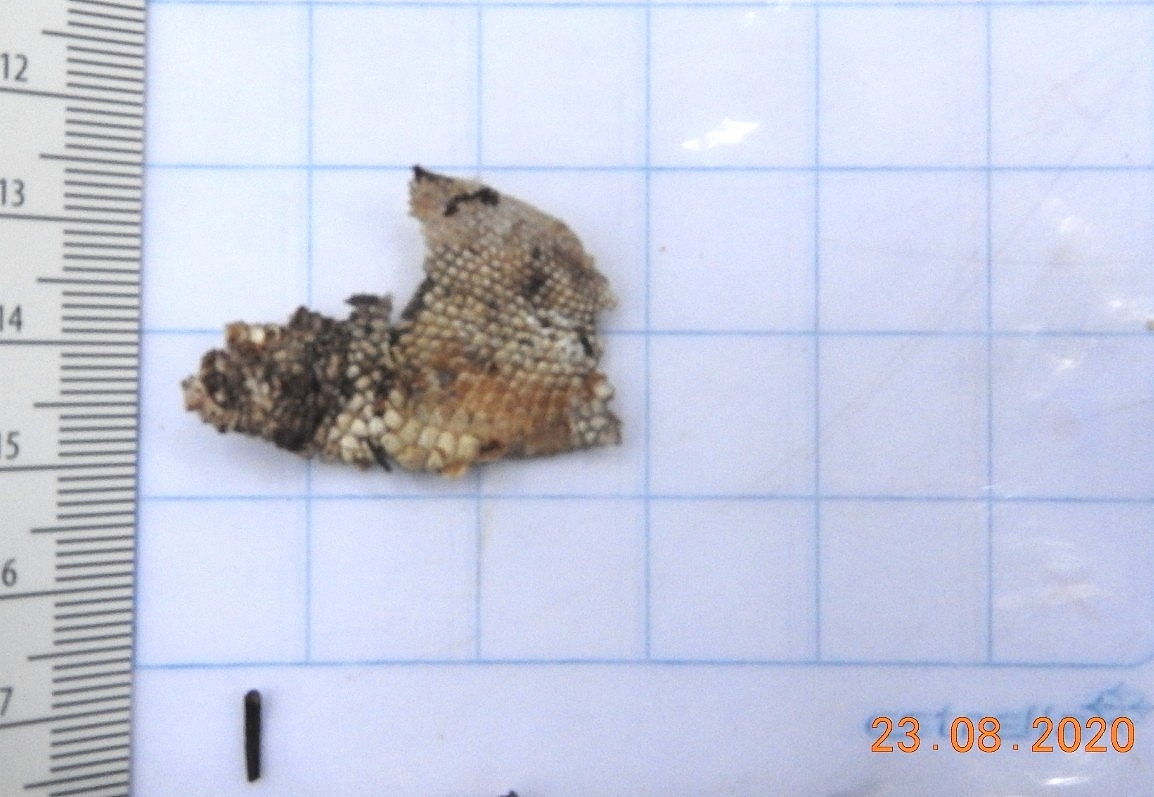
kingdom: Animalia
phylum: Chordata
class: Squamata
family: Boidae
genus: Boa
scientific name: Boa imperator
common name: Central american boa
